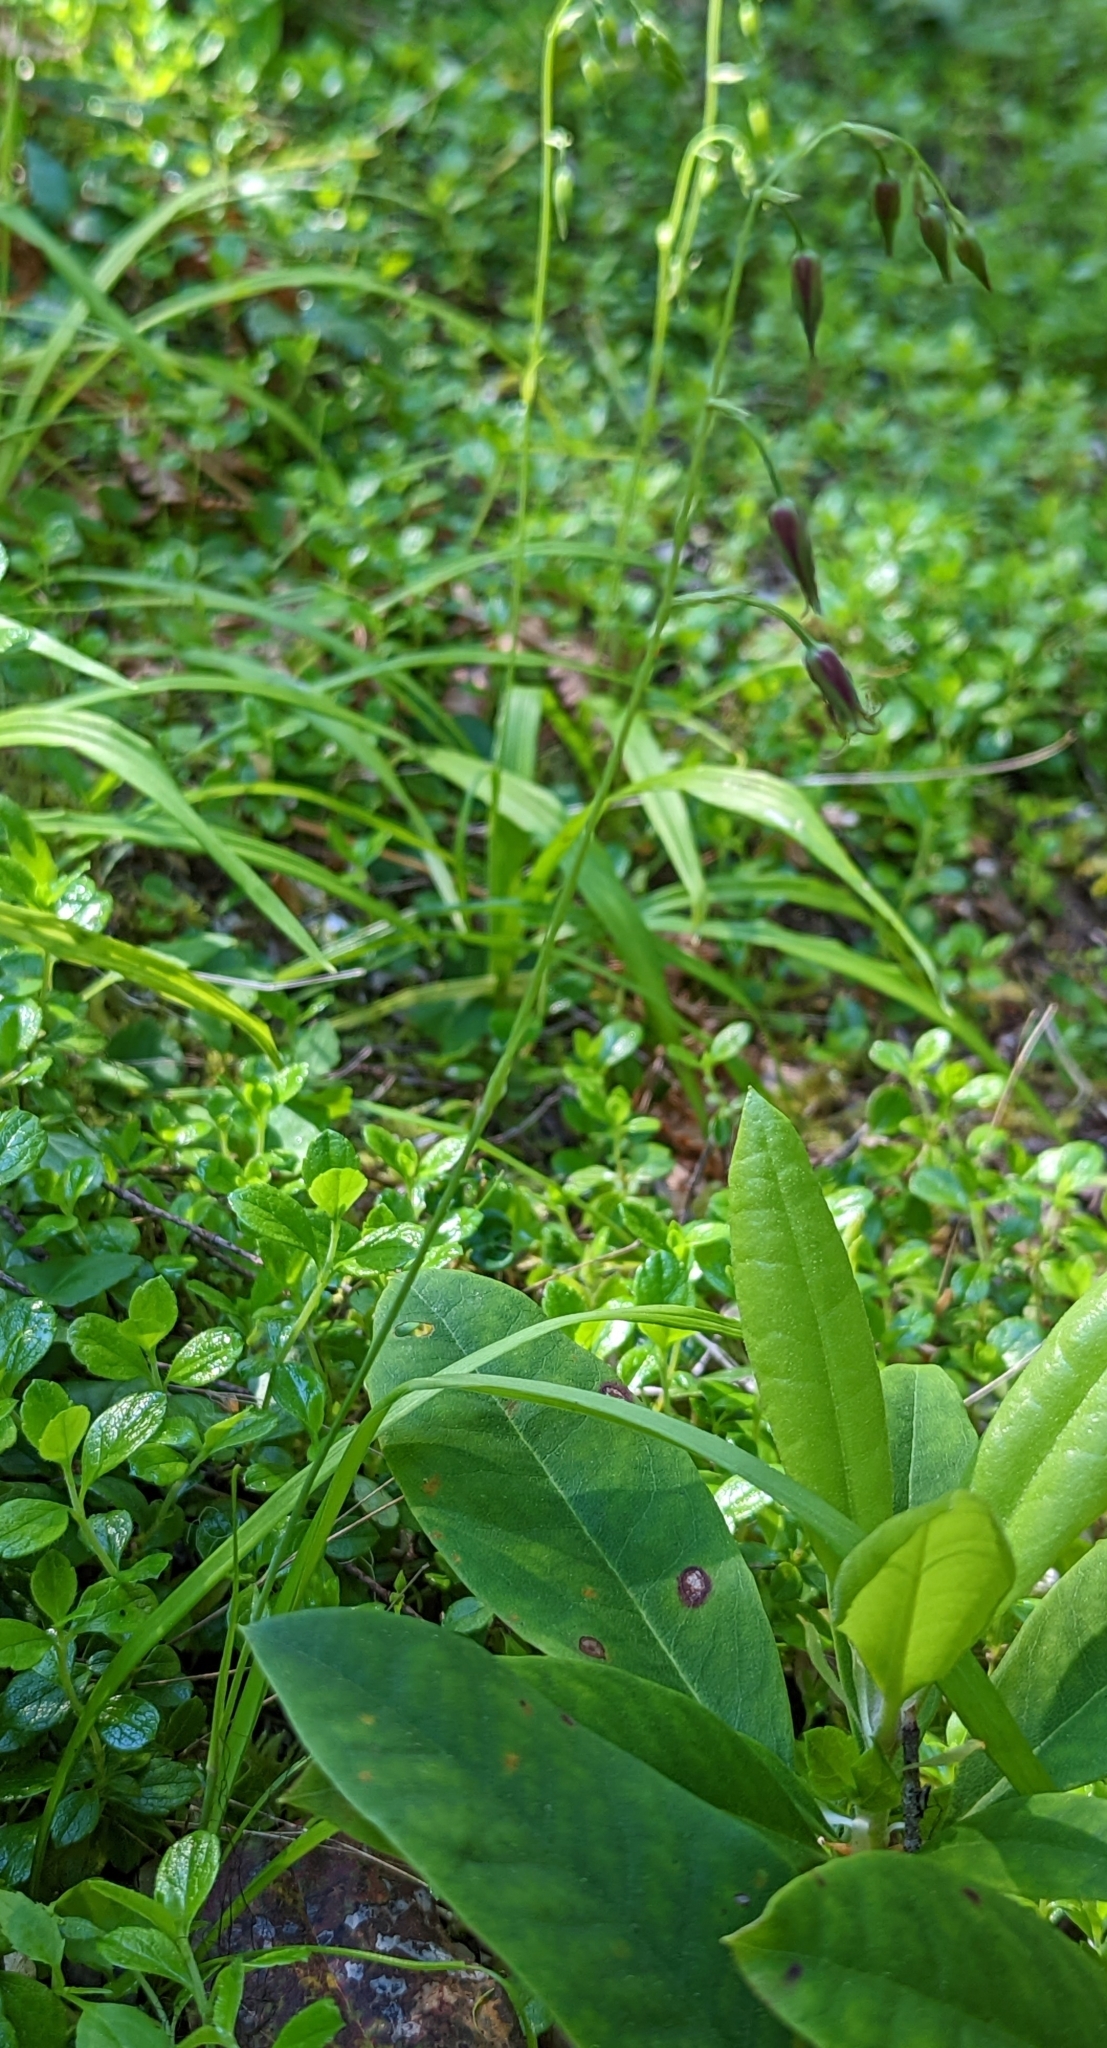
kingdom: Plantae
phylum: Tracheophyta
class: Liliopsida
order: Liliales
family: Melanthiaceae
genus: Anticlea
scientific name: Anticlea occidentalis
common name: Bronze-bells
